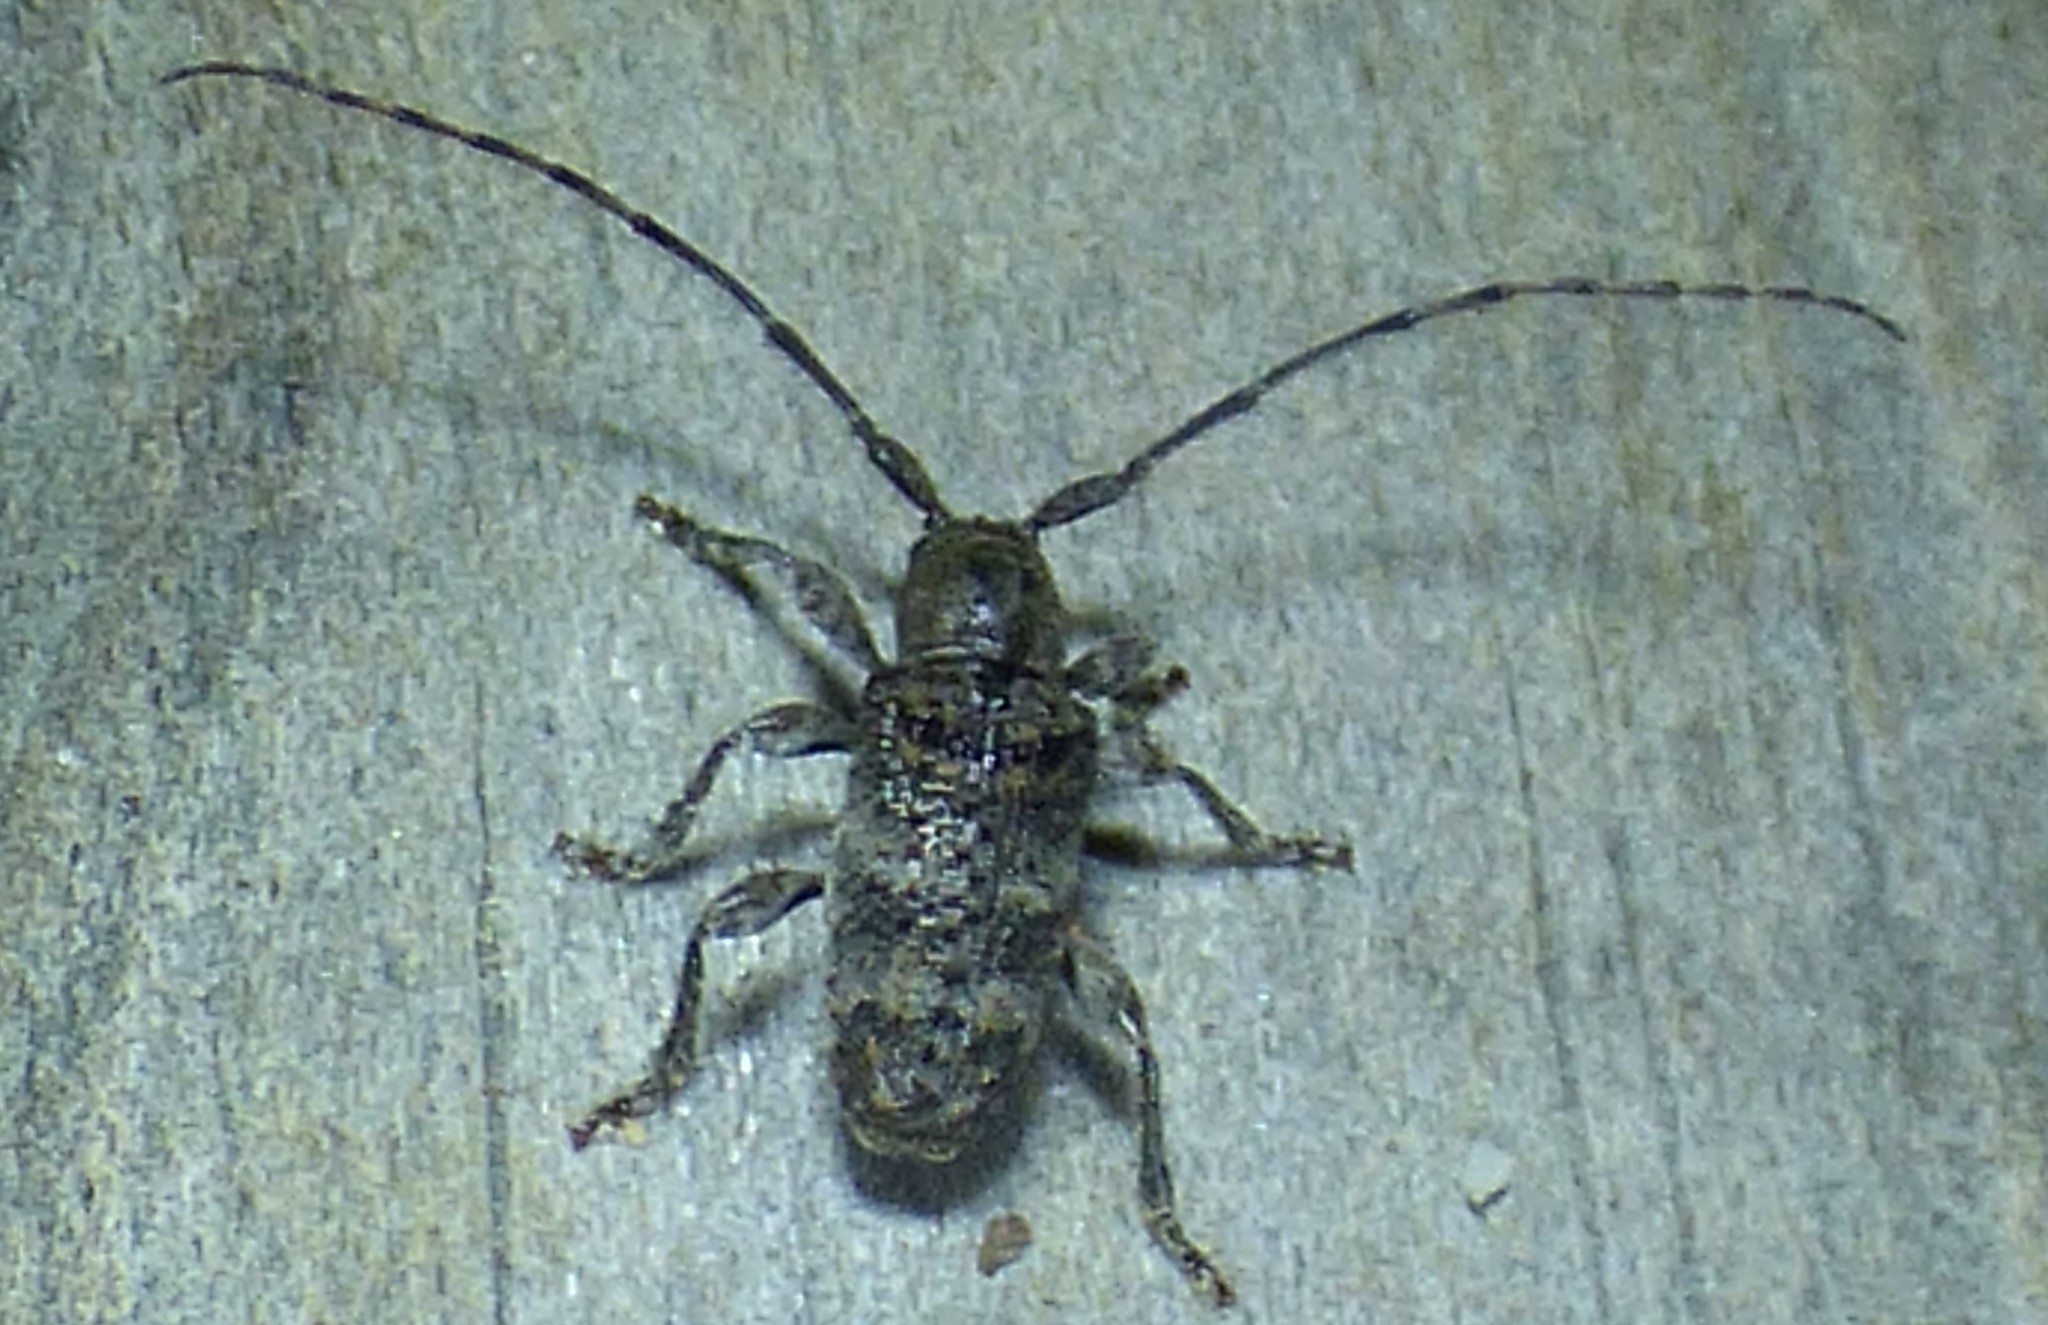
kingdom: Animalia
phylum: Arthropoda
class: Insecta
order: Coleoptera
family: Cerambycidae
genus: Ecyrus
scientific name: Ecyrus dasycerus
